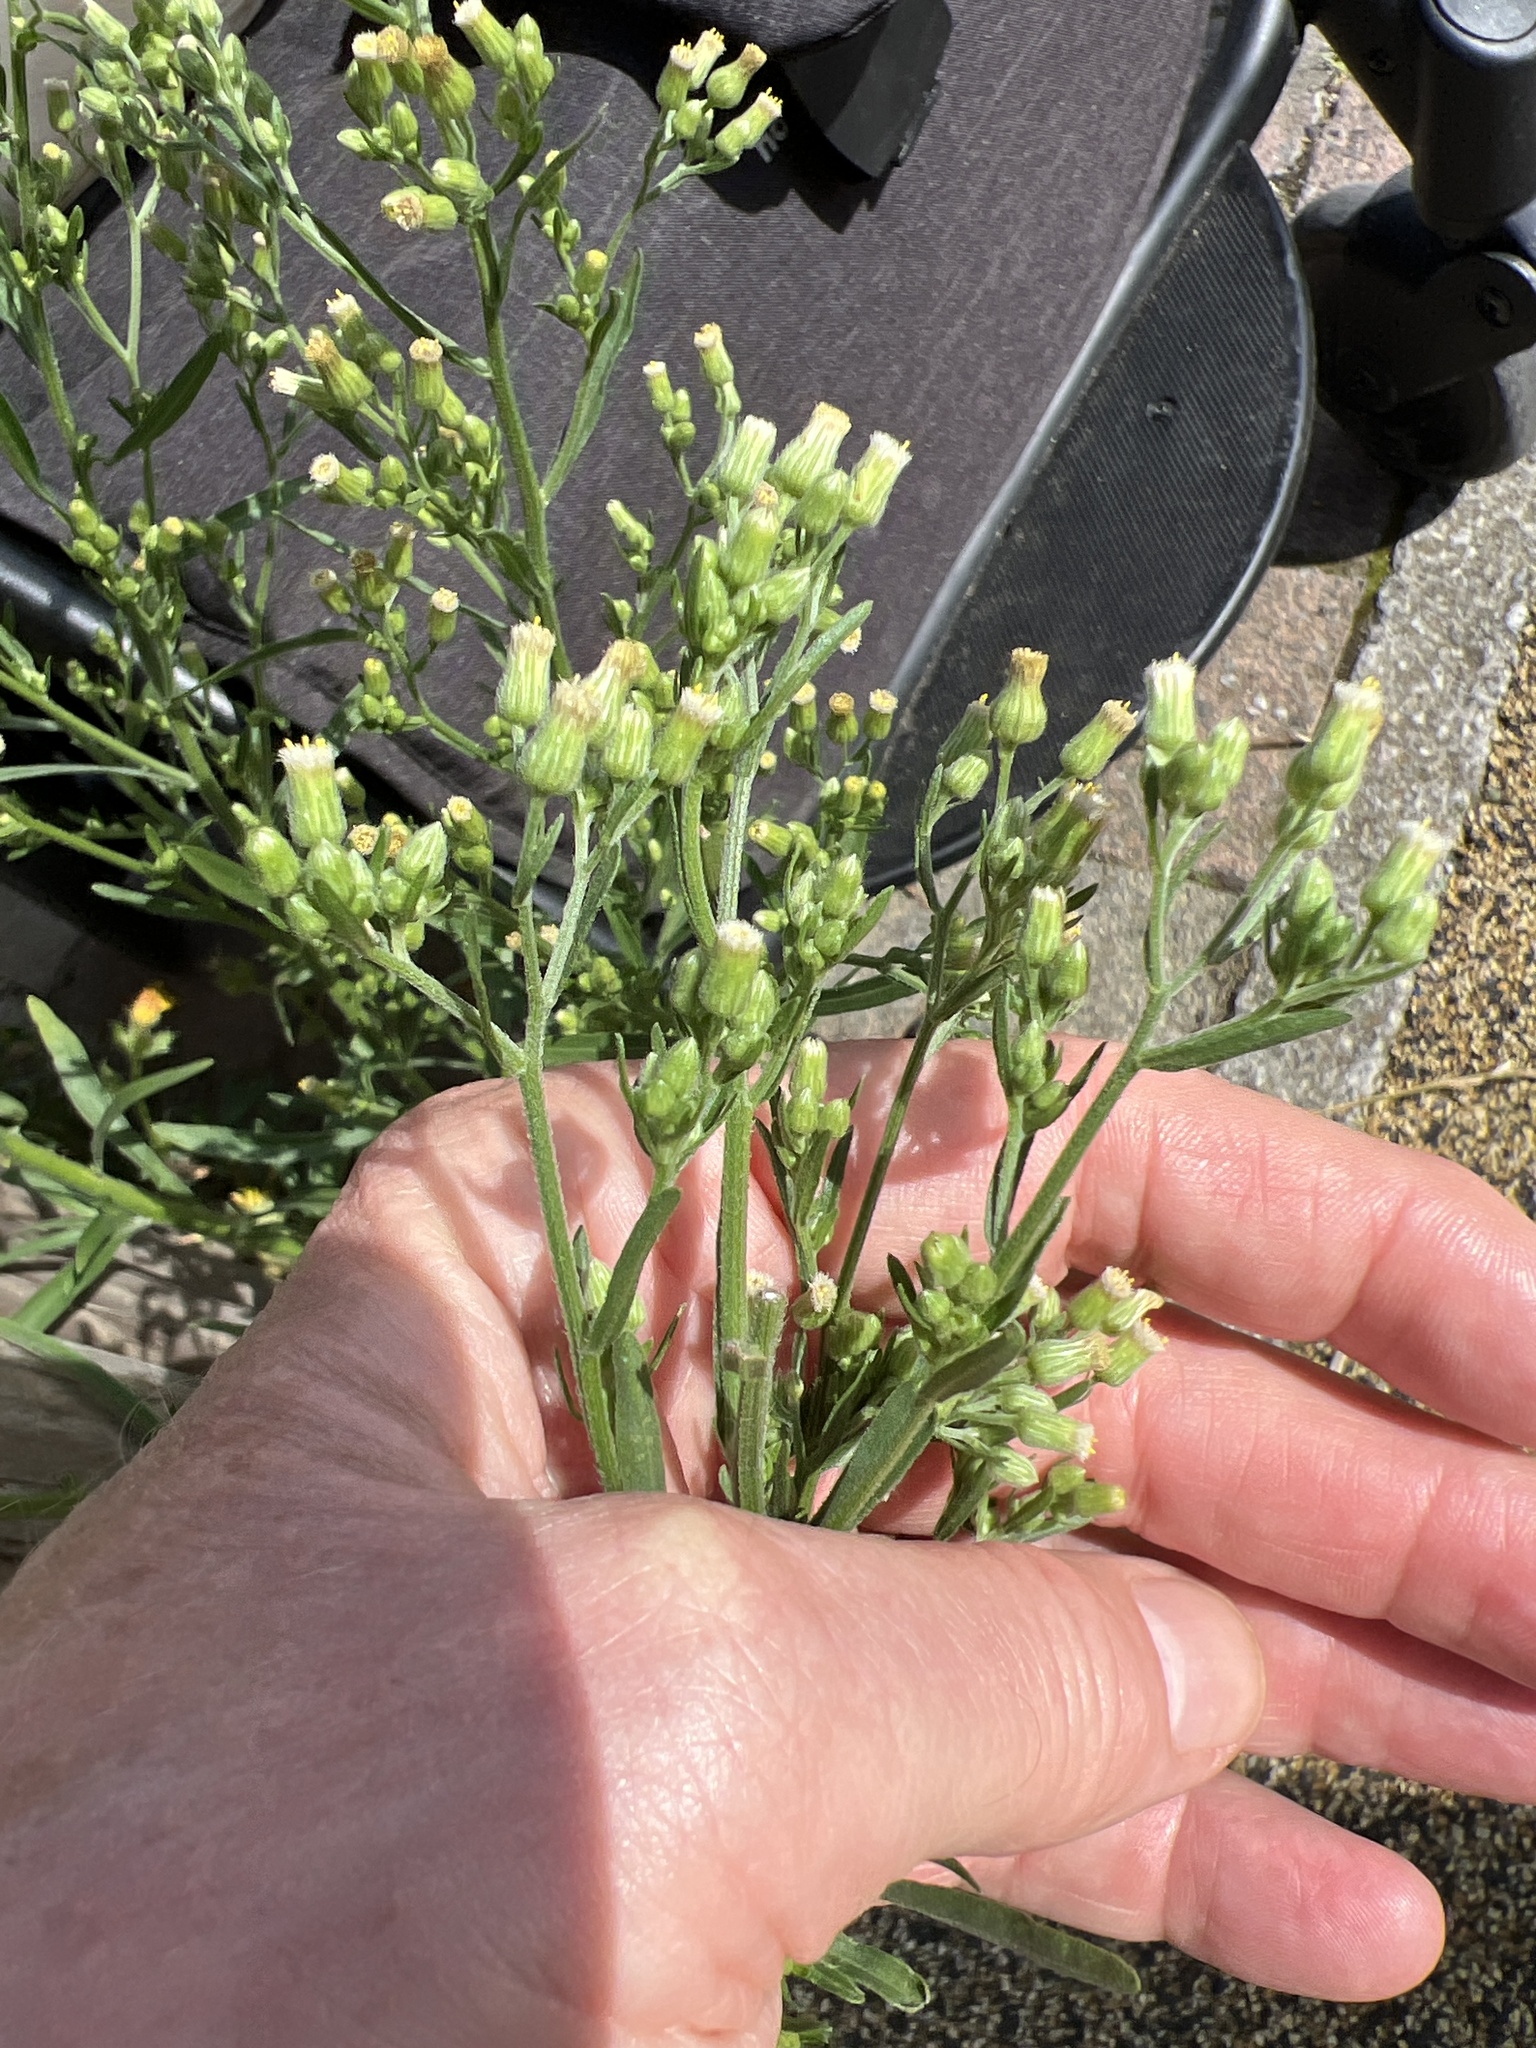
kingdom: Plantae
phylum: Tracheophyta
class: Magnoliopsida
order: Asterales
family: Asteraceae
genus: Erigeron
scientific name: Erigeron sumatrensis
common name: Daisy
